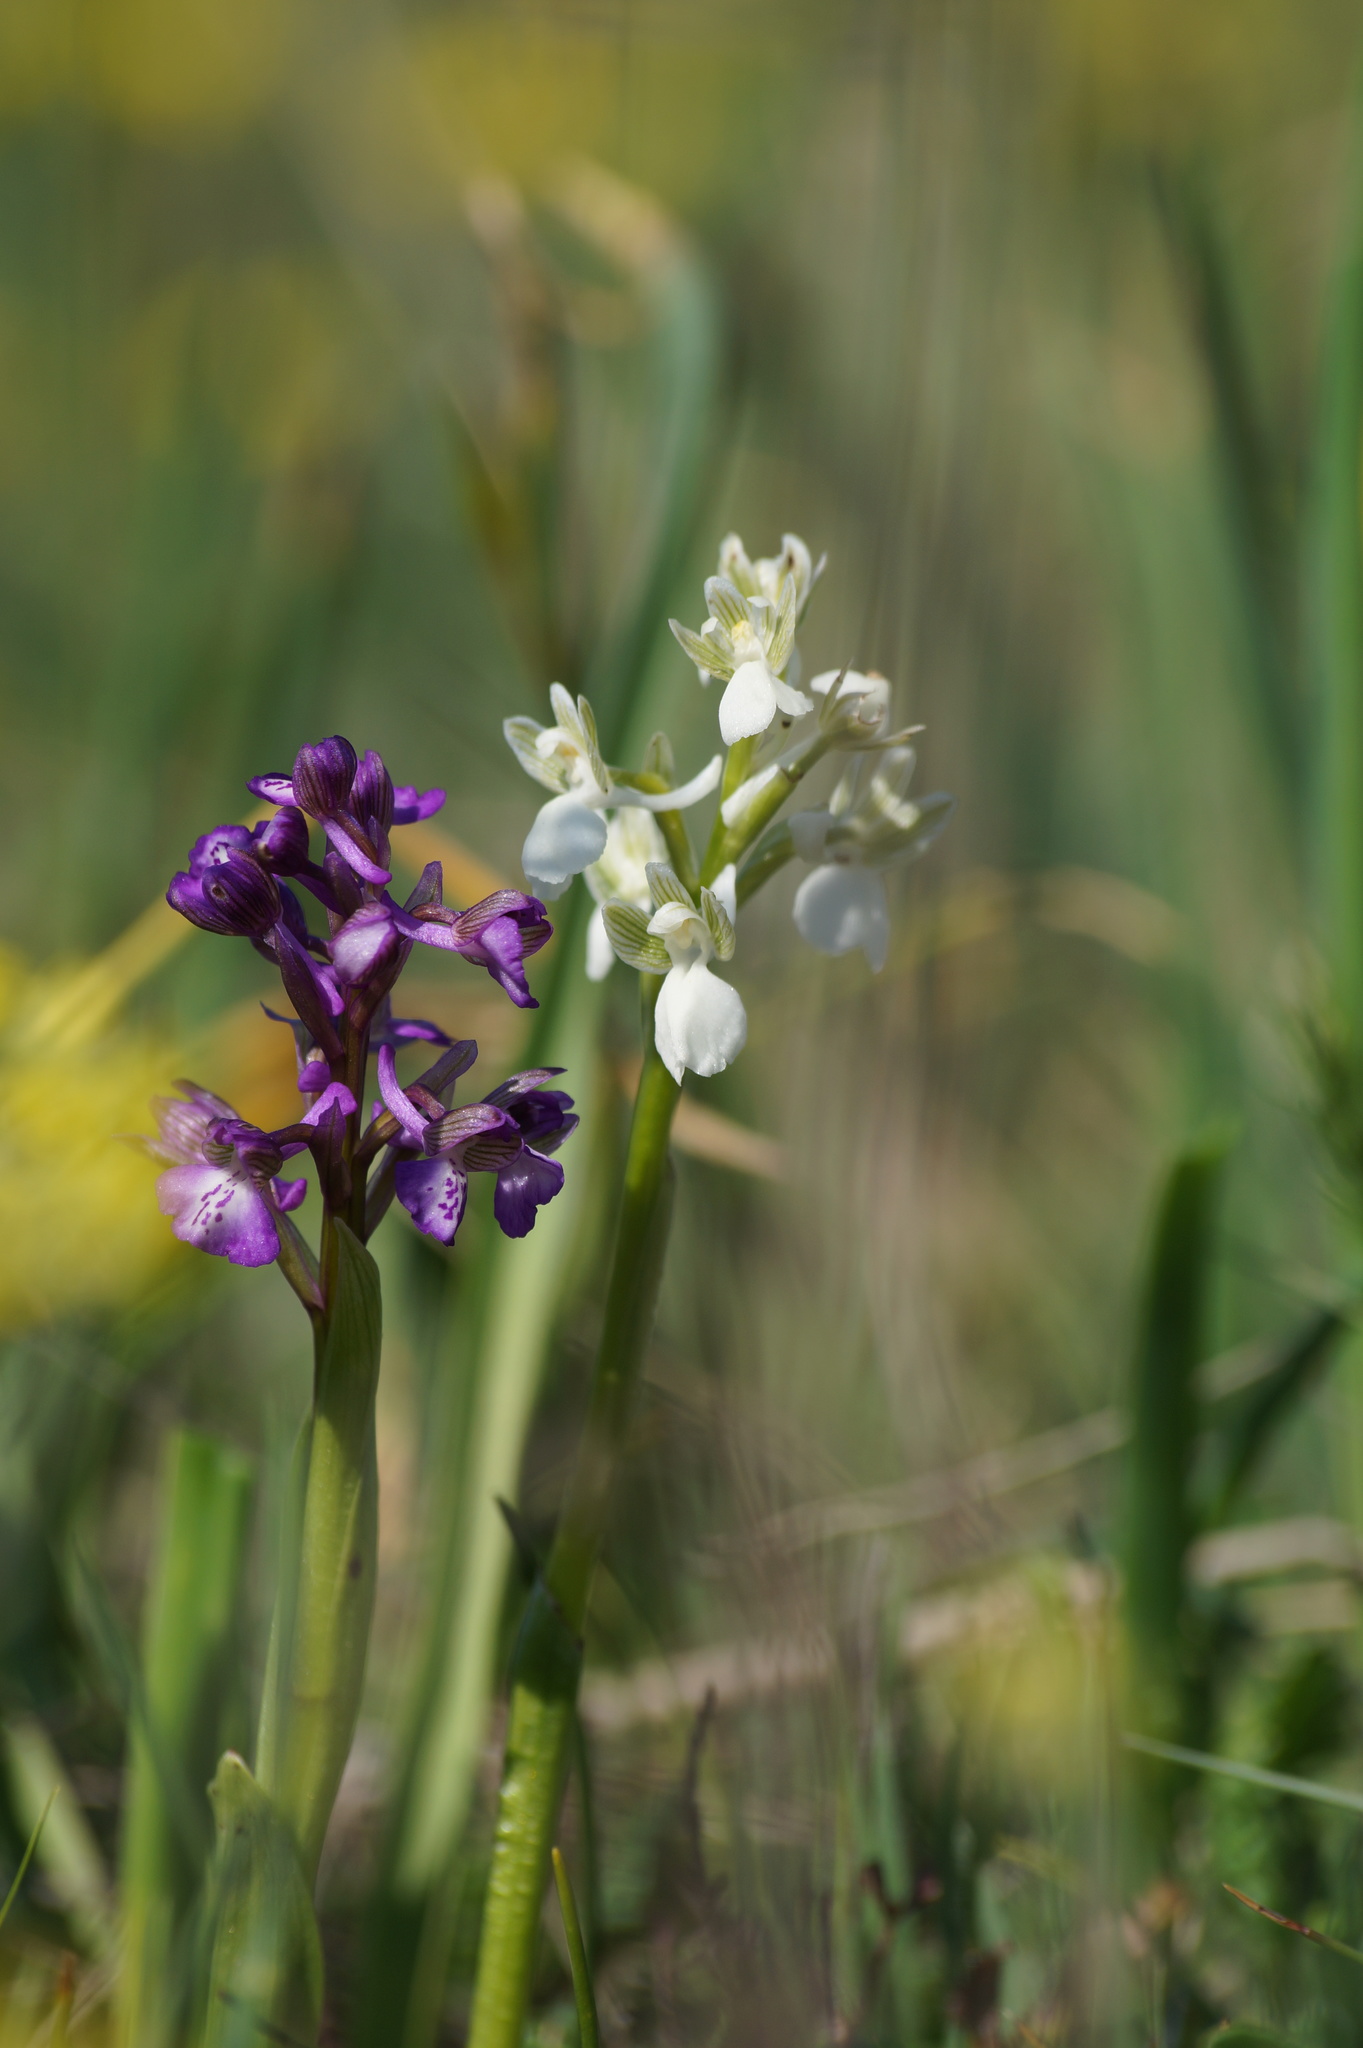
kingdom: Plantae
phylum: Tracheophyta
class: Liliopsida
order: Asparagales
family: Orchidaceae
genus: Anacamptis
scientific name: Anacamptis morio
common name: Green-winged orchid
